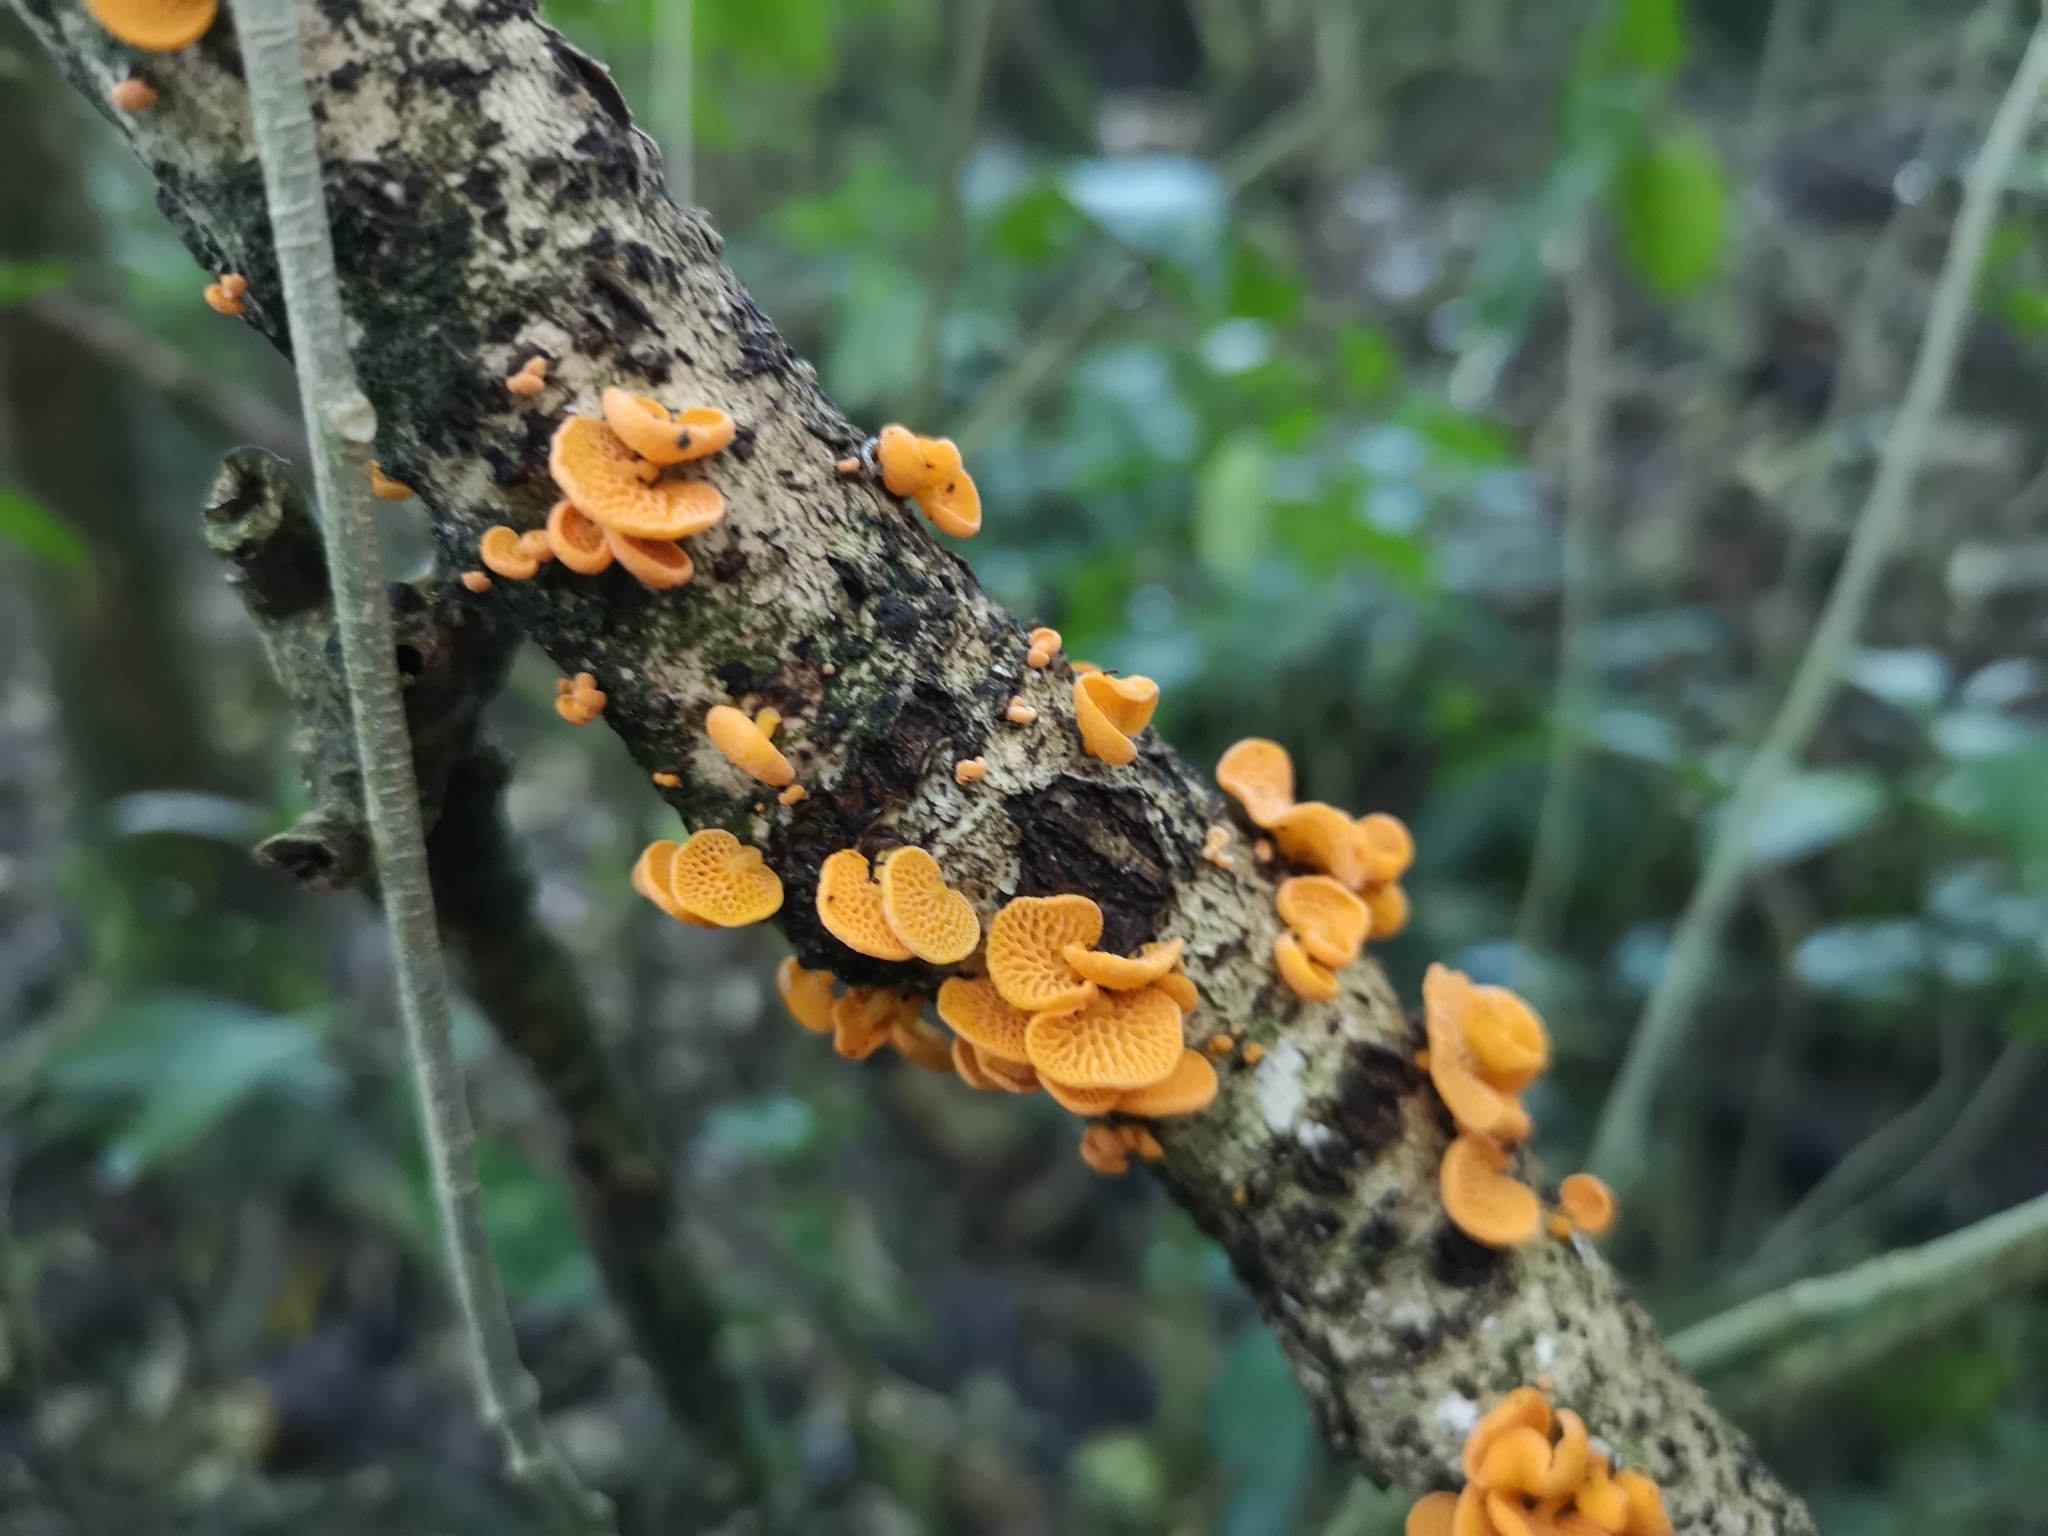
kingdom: Fungi
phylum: Basidiomycota
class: Agaricomycetes
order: Agaricales
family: Mycenaceae
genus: Favolaschia
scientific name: Favolaschia claudopus
